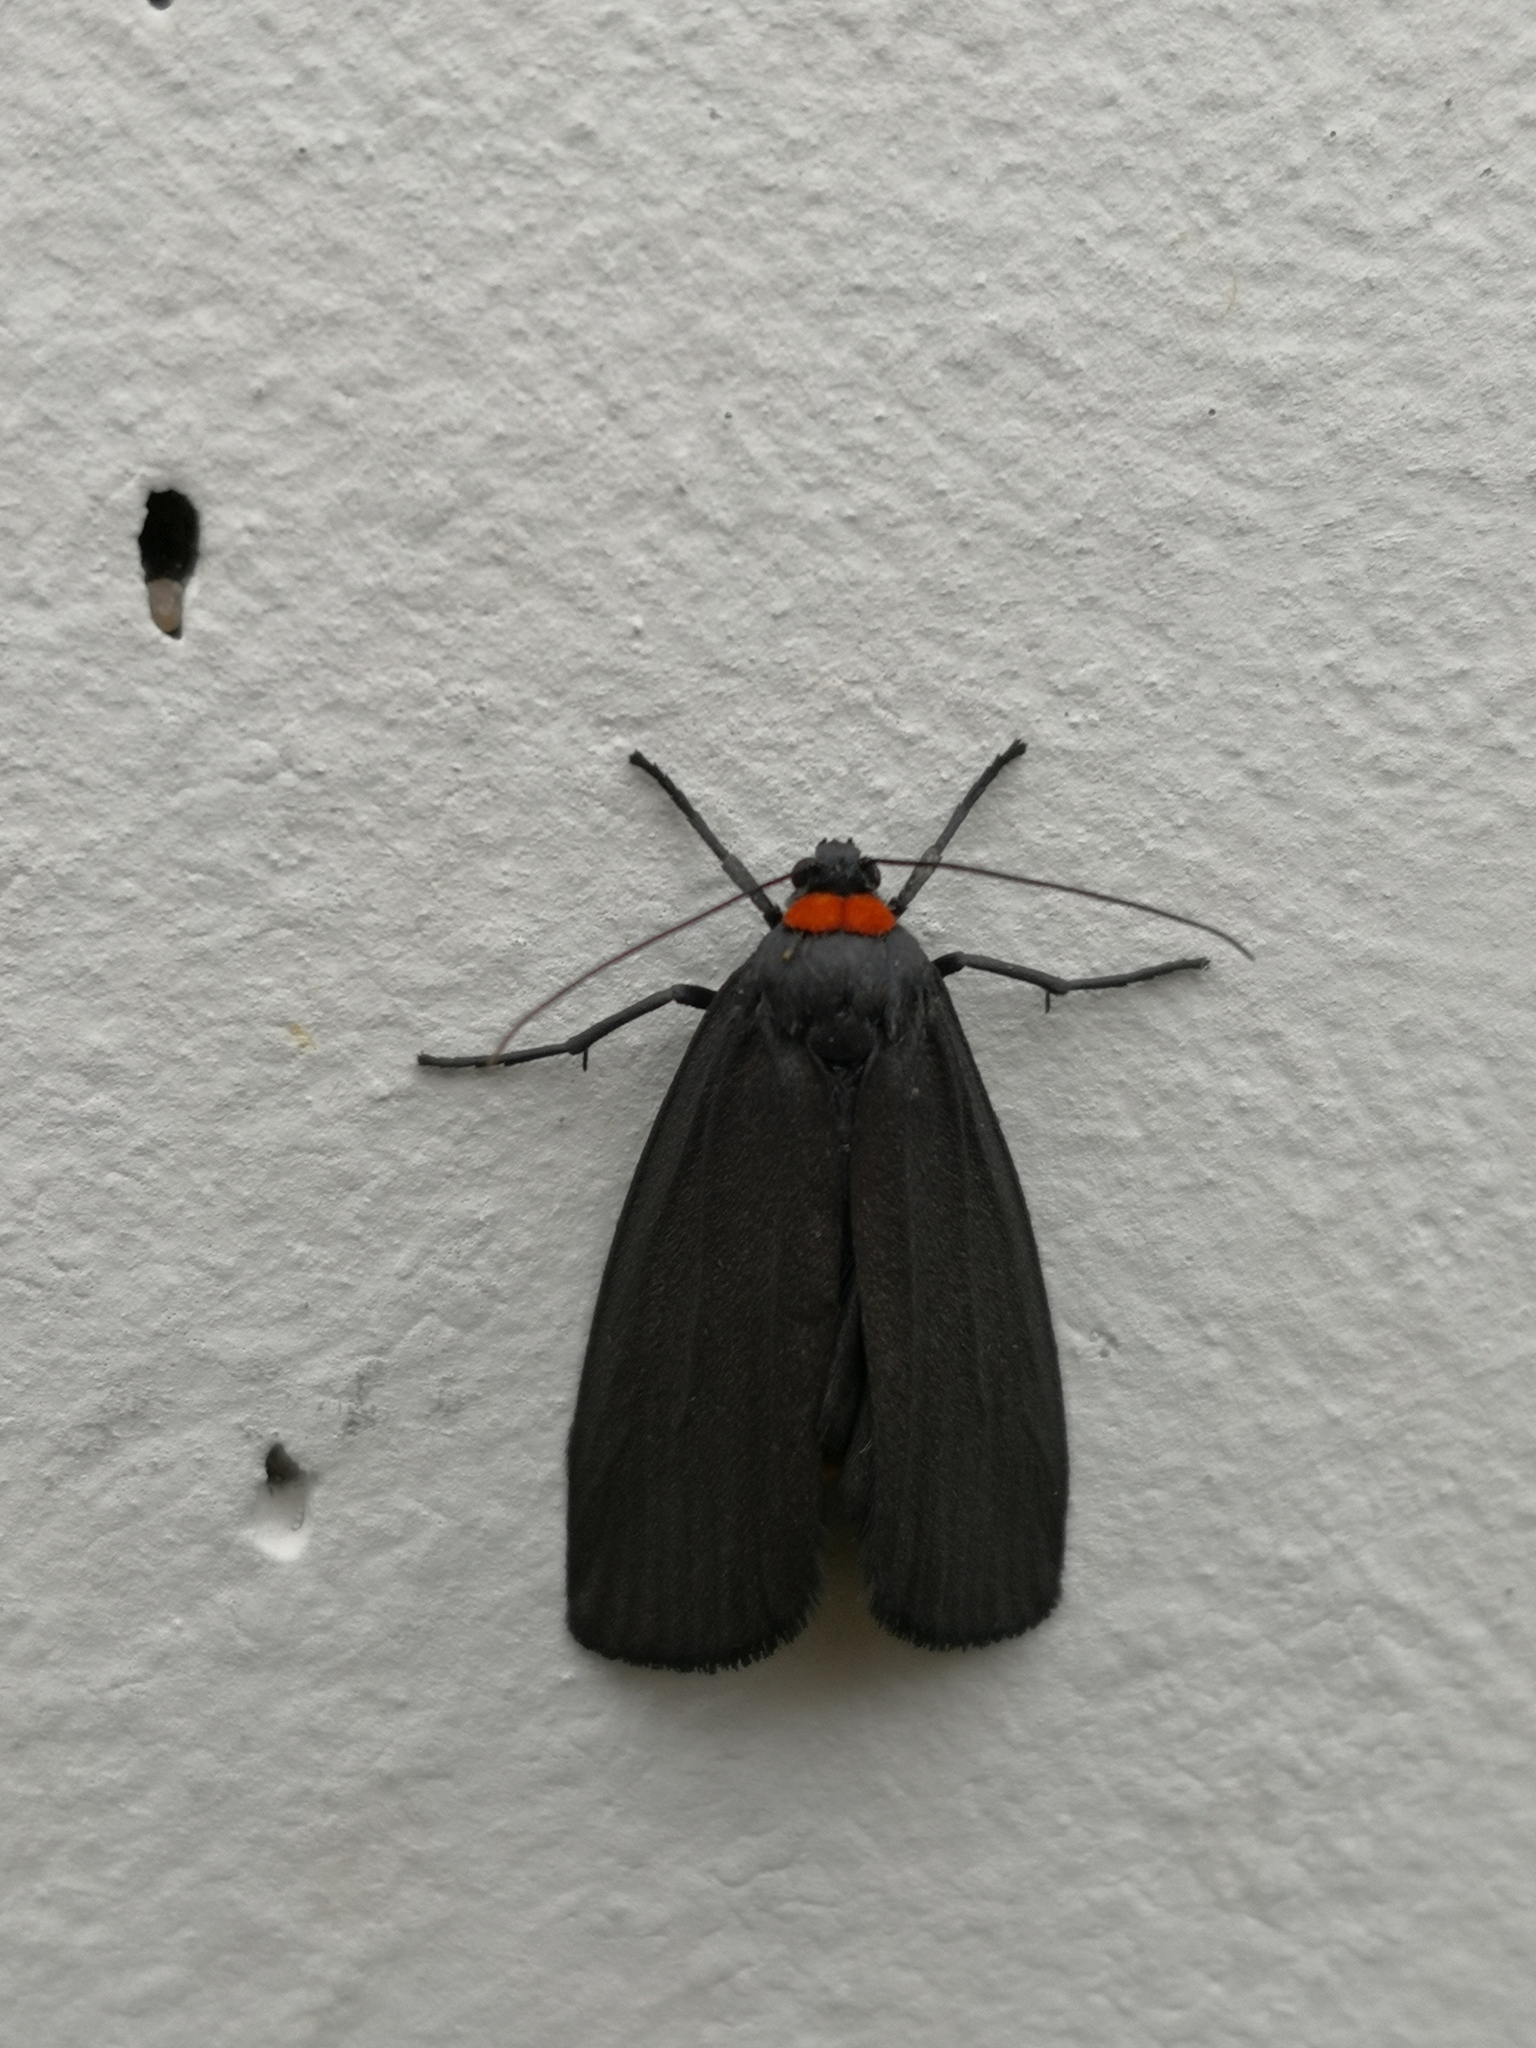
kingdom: Animalia
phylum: Arthropoda
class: Insecta
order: Lepidoptera
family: Erebidae
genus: Atolmis
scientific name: Atolmis rubricollis
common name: Red-necked footman
